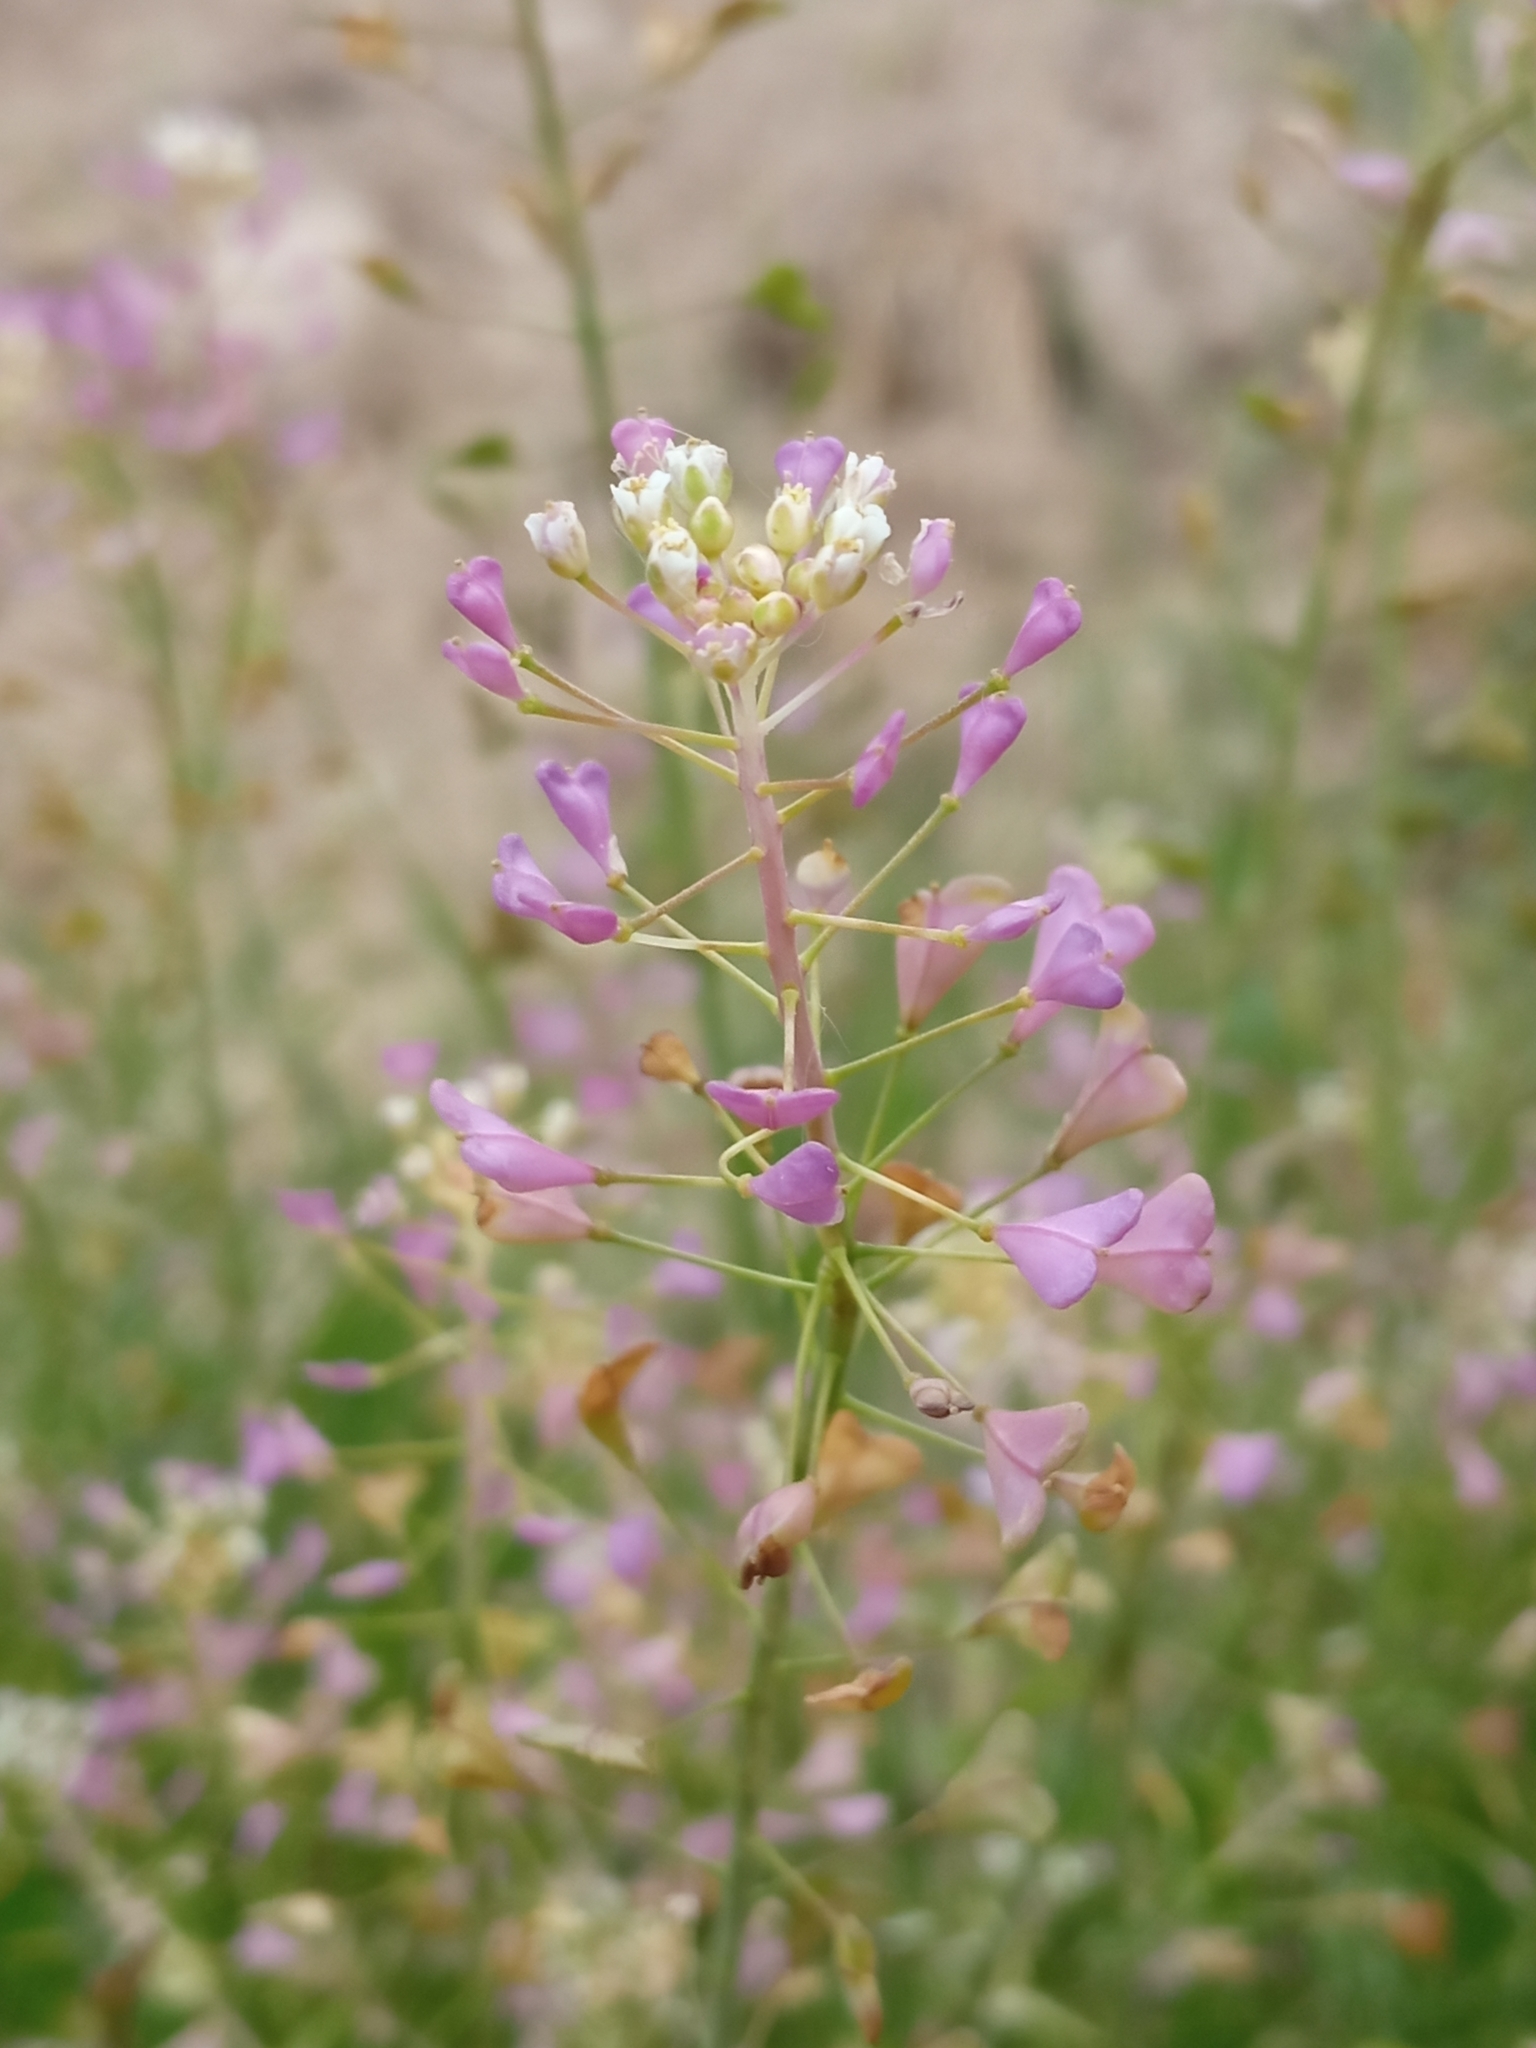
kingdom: Plantae
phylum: Tracheophyta
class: Magnoliopsida
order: Brassicales
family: Brassicaceae
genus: Capsella
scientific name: Capsella bursa-pastoris
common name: Shepherd's purse
